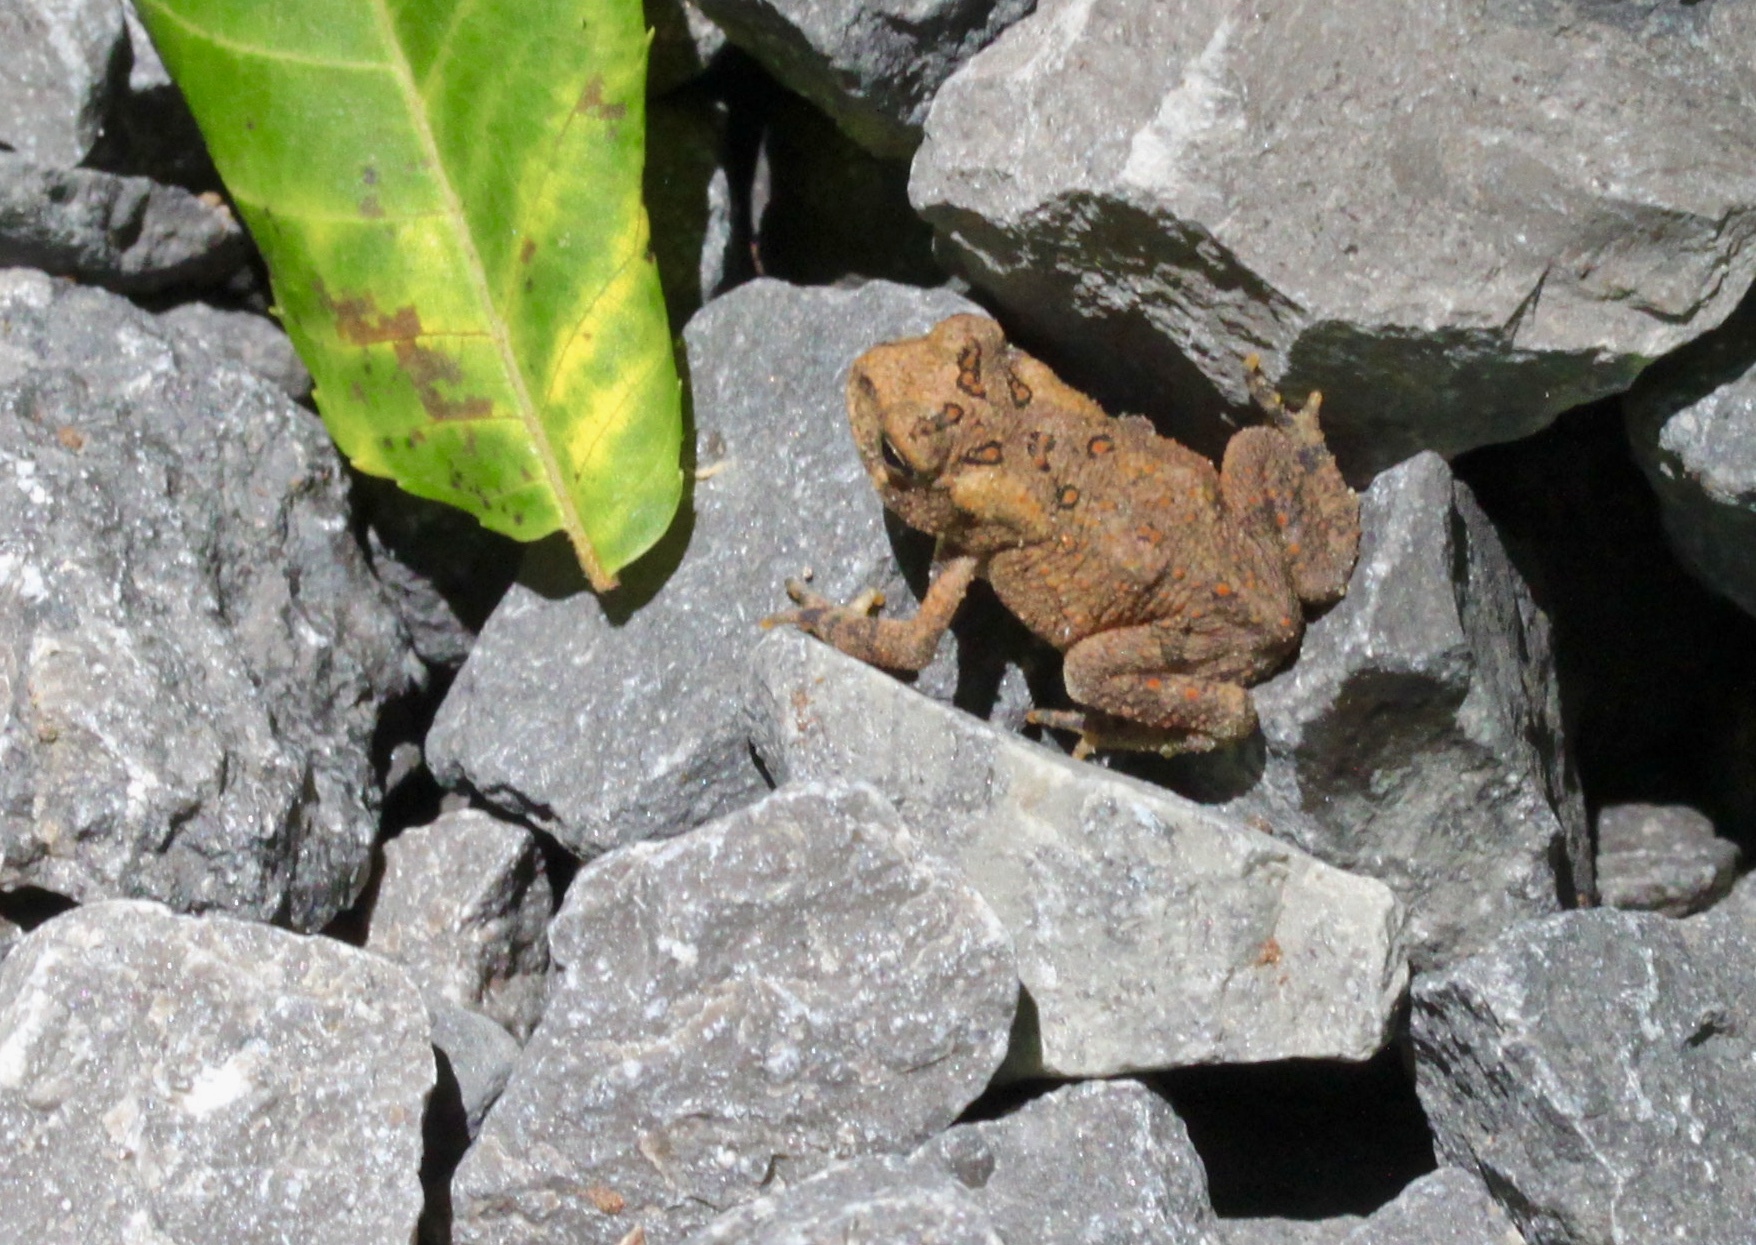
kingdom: Animalia
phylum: Chordata
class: Amphibia
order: Anura
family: Bufonidae
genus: Anaxyrus
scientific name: Anaxyrus americanus
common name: American toad
